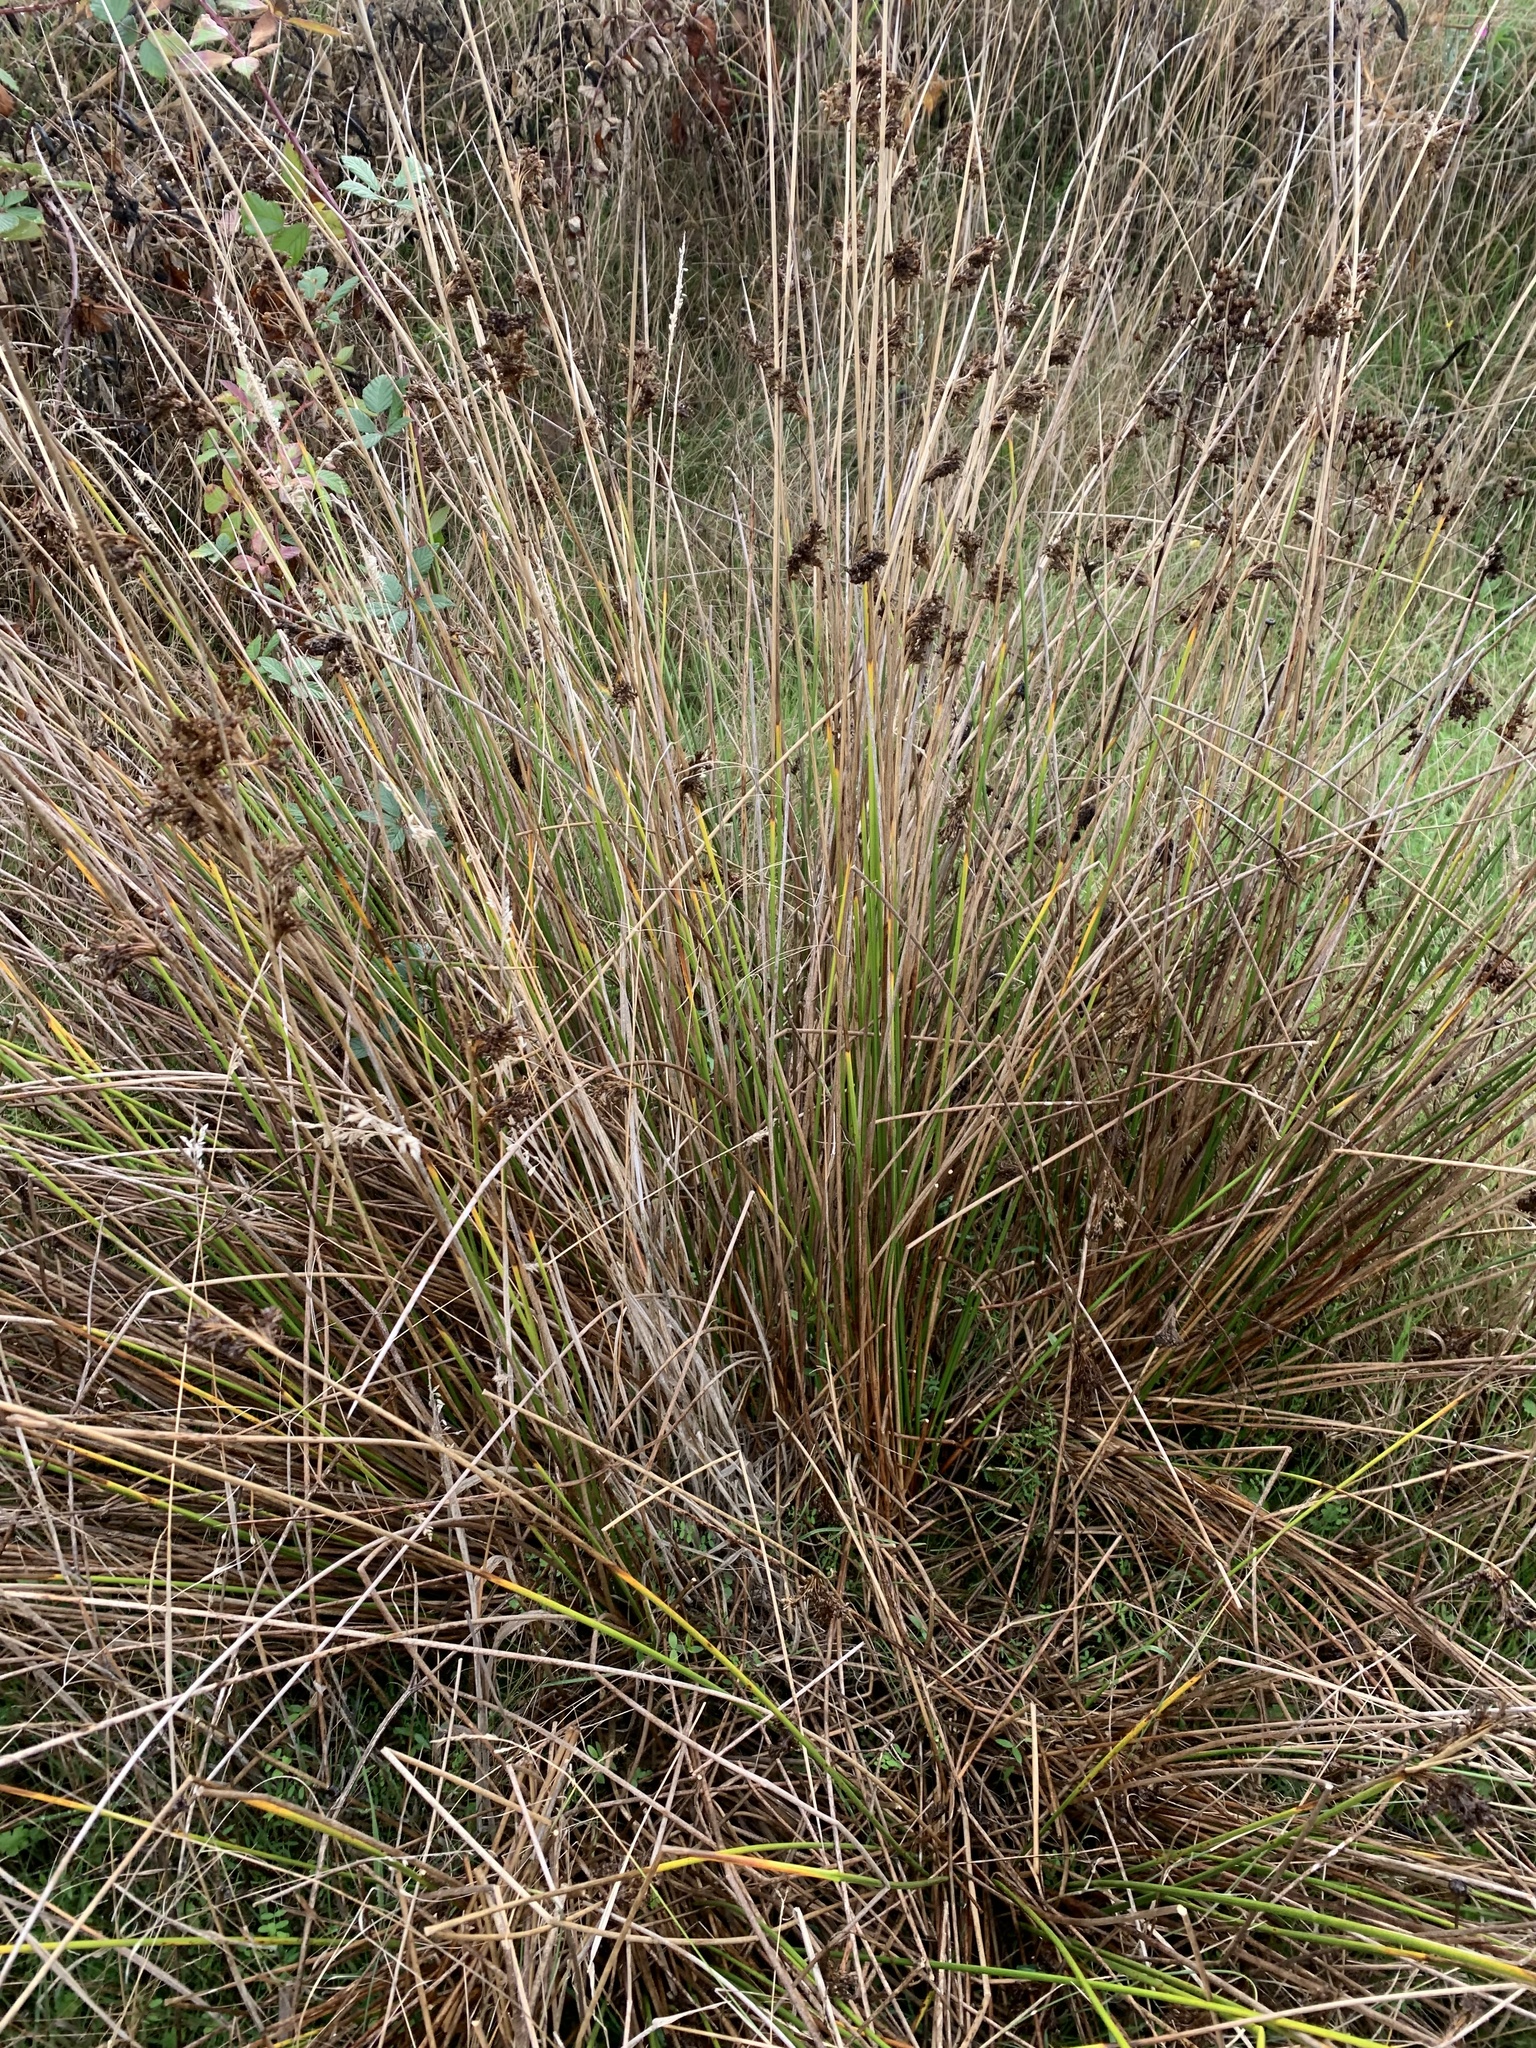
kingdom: Plantae
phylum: Tracheophyta
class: Liliopsida
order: Poales
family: Juncaceae
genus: Juncus
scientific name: Juncus effusus
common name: Soft rush
